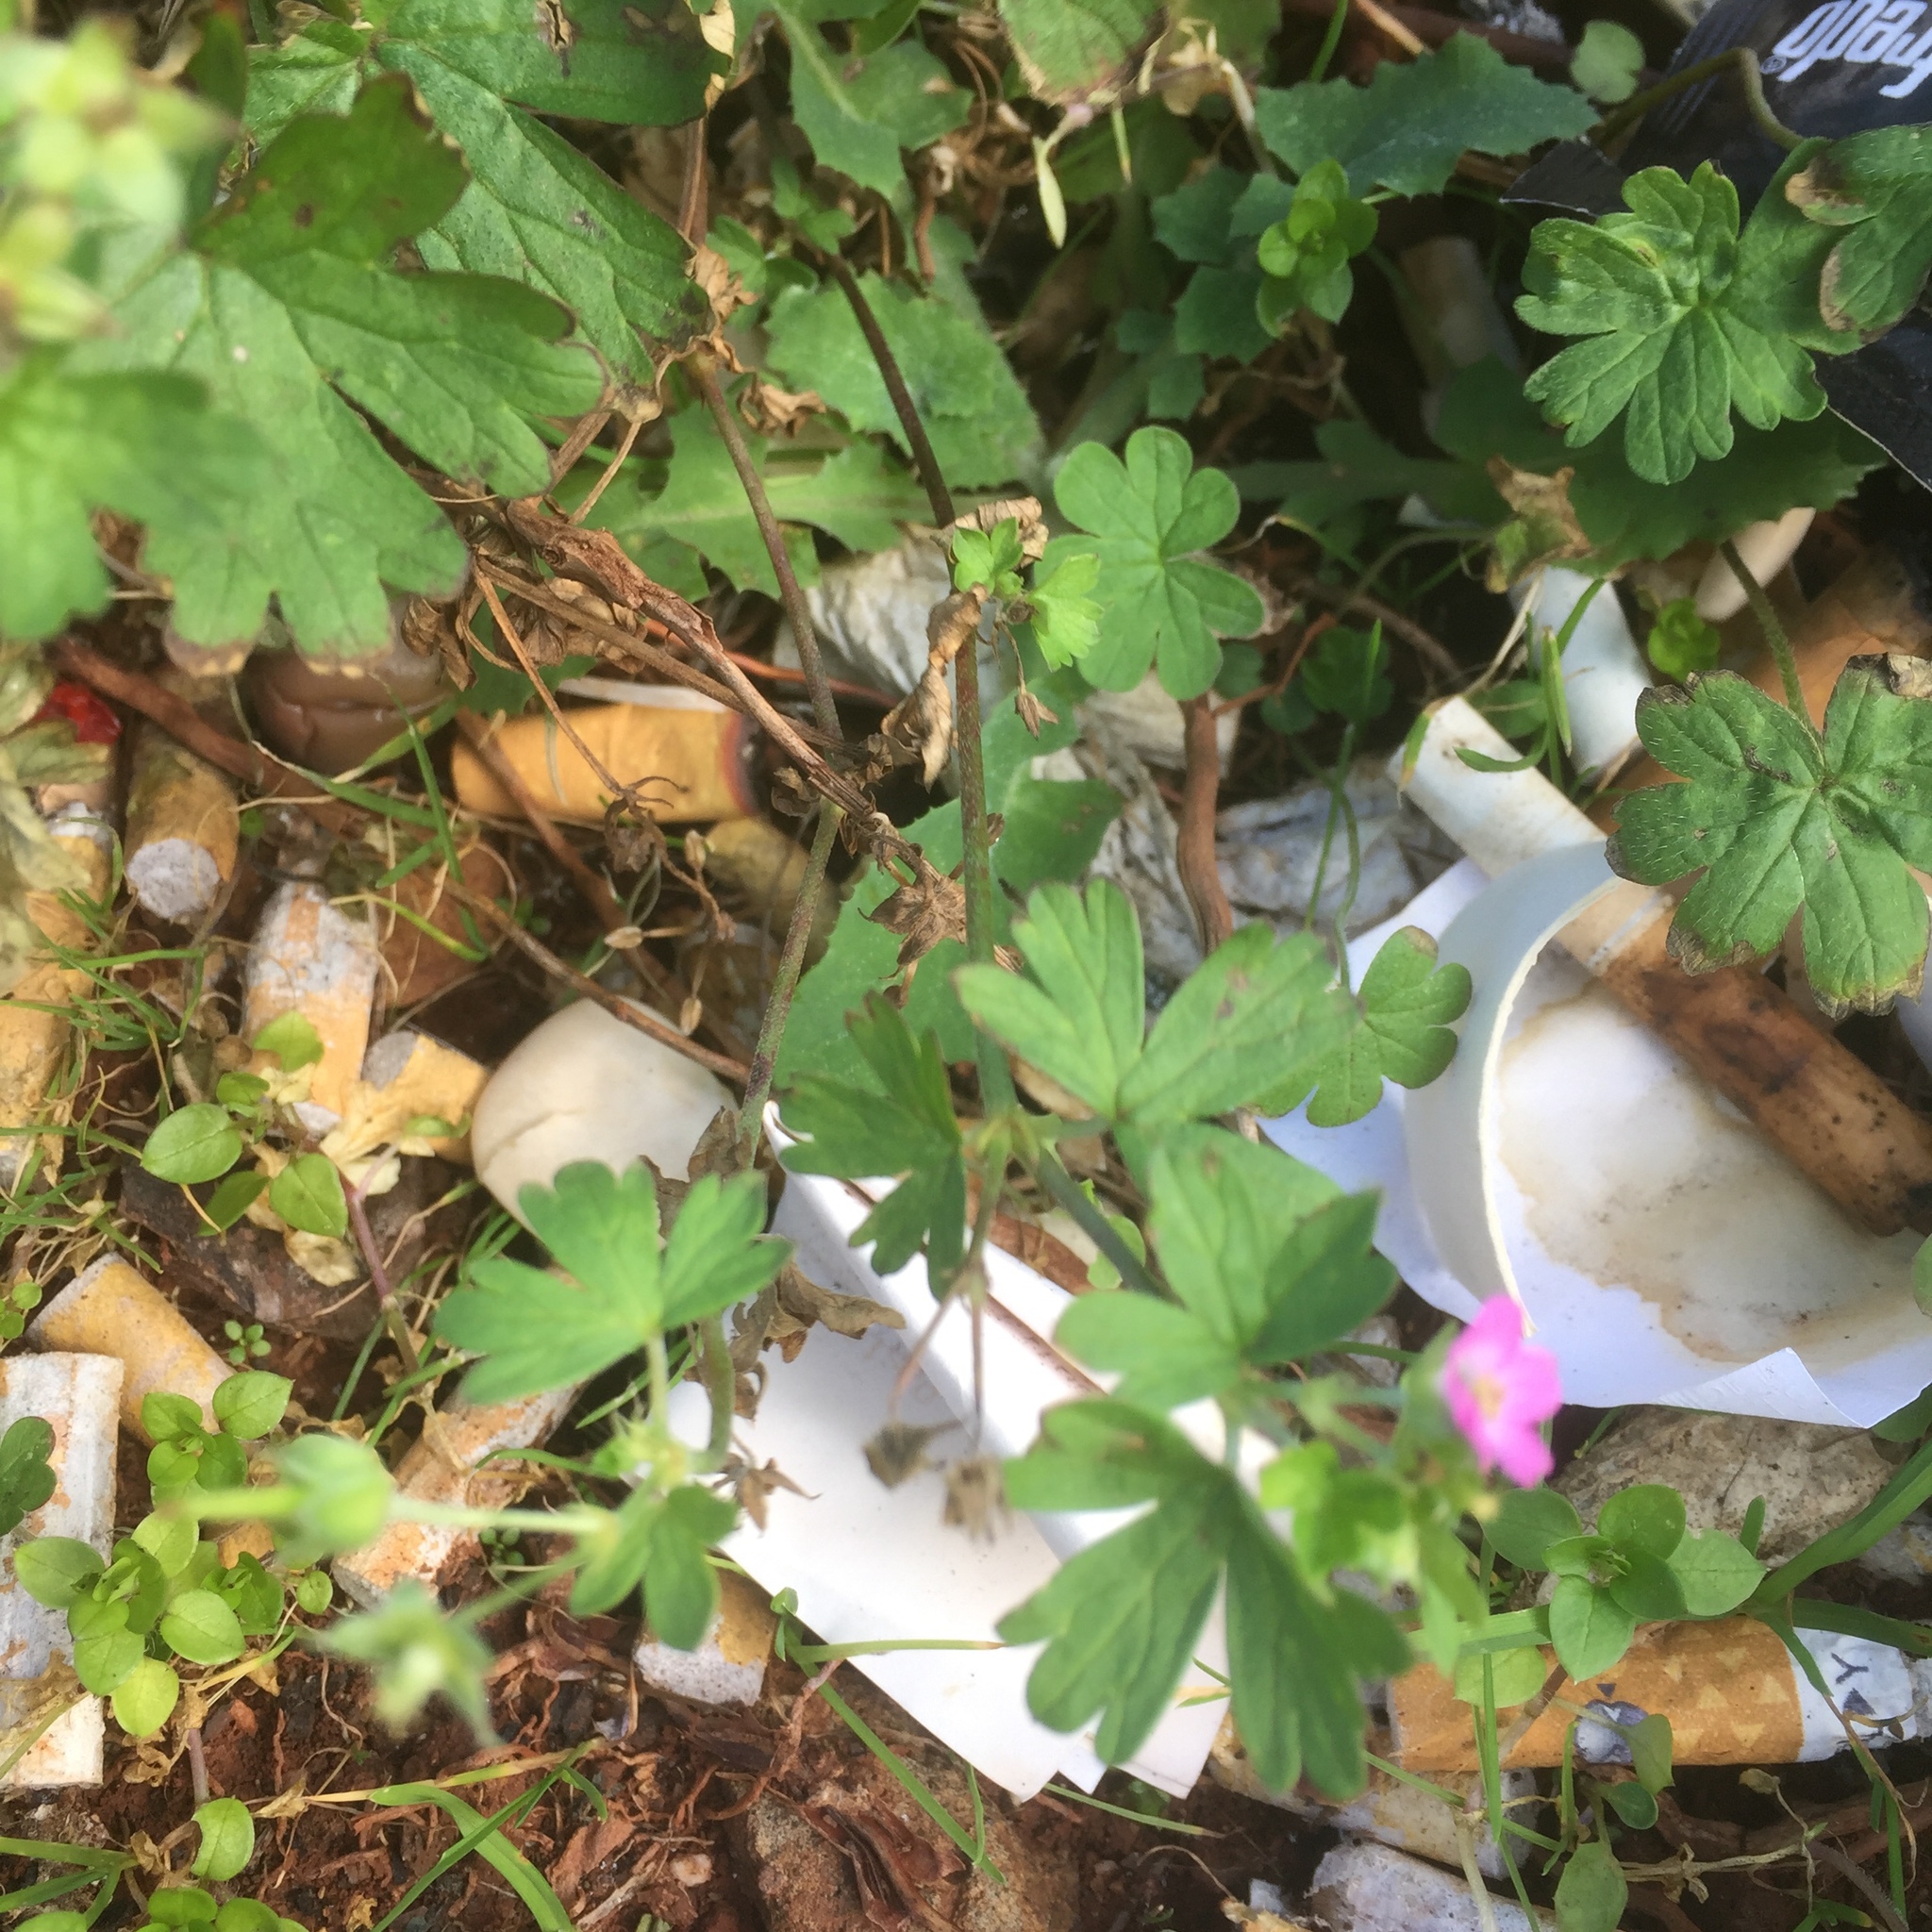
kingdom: Plantae
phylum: Tracheophyta
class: Magnoliopsida
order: Geraniales
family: Geraniaceae
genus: Geranium
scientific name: Geranium rotundifolium
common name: Round-leaved crane's-bill
